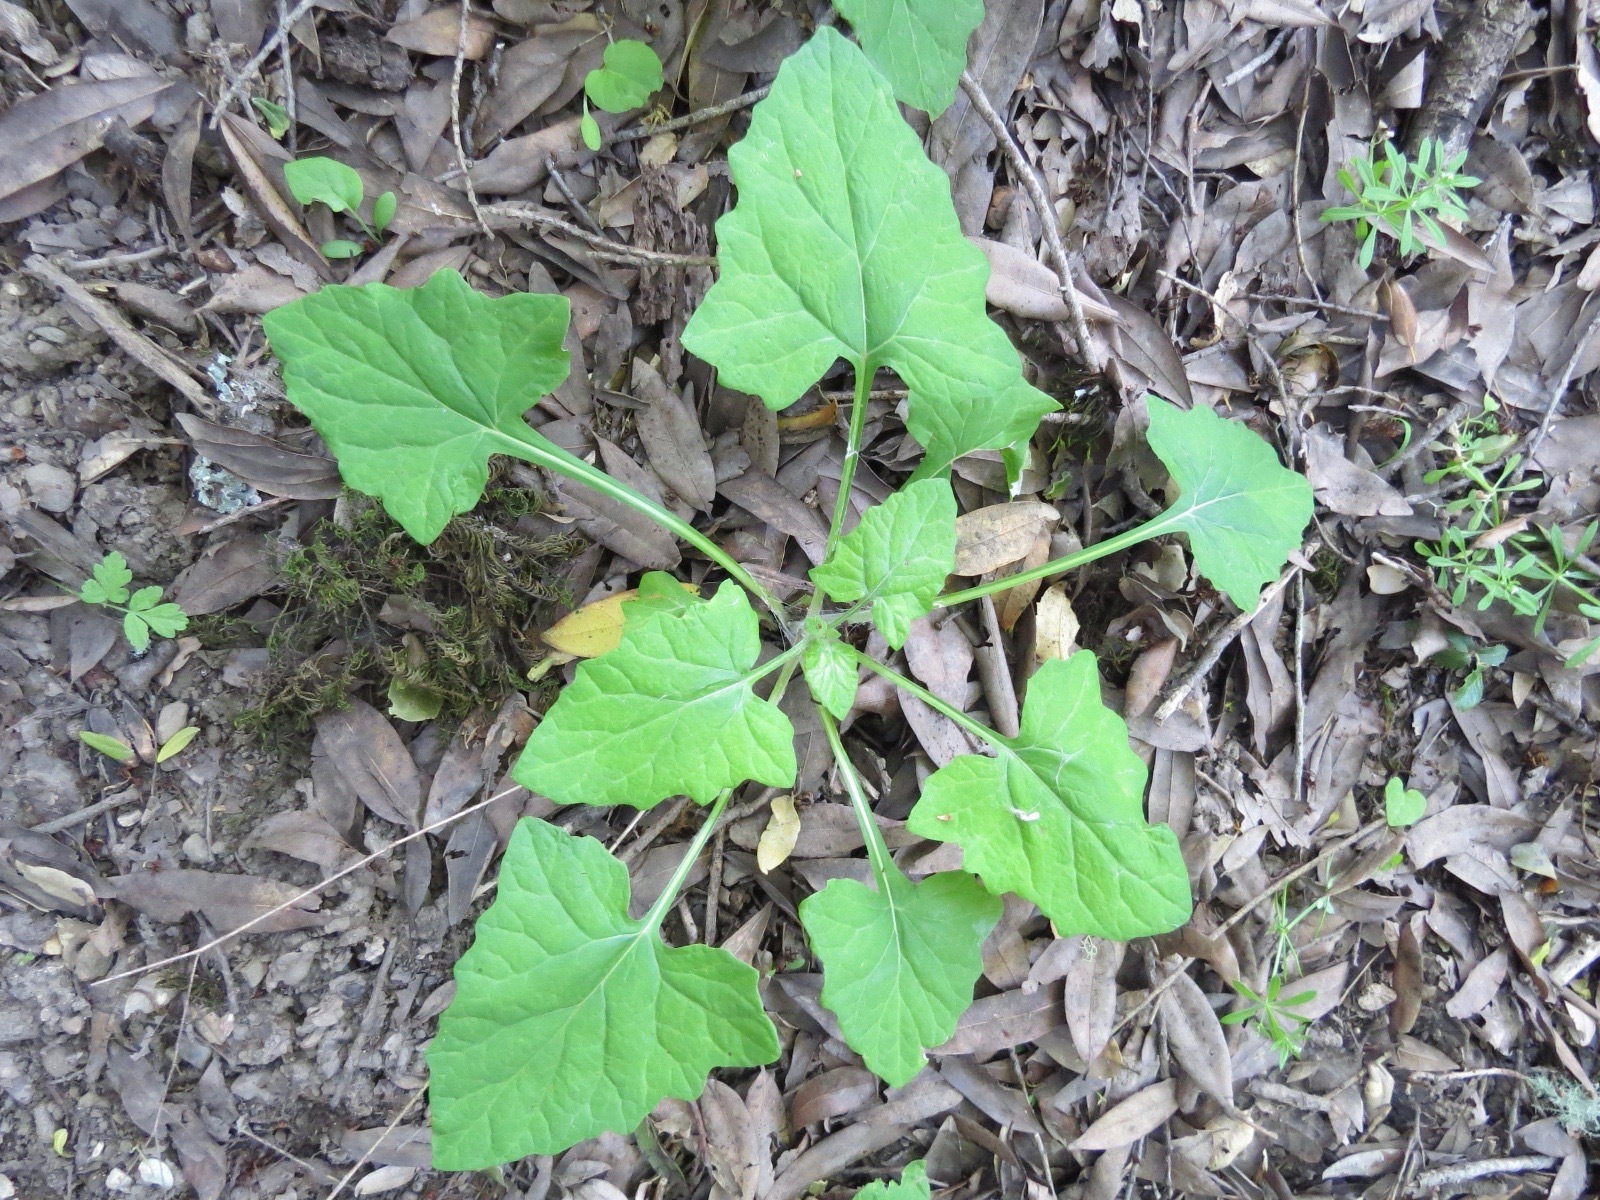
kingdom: Plantae
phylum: Tracheophyta
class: Magnoliopsida
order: Asterales
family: Asteraceae
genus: Adenocaulon
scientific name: Adenocaulon bicolor
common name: Trailplant
